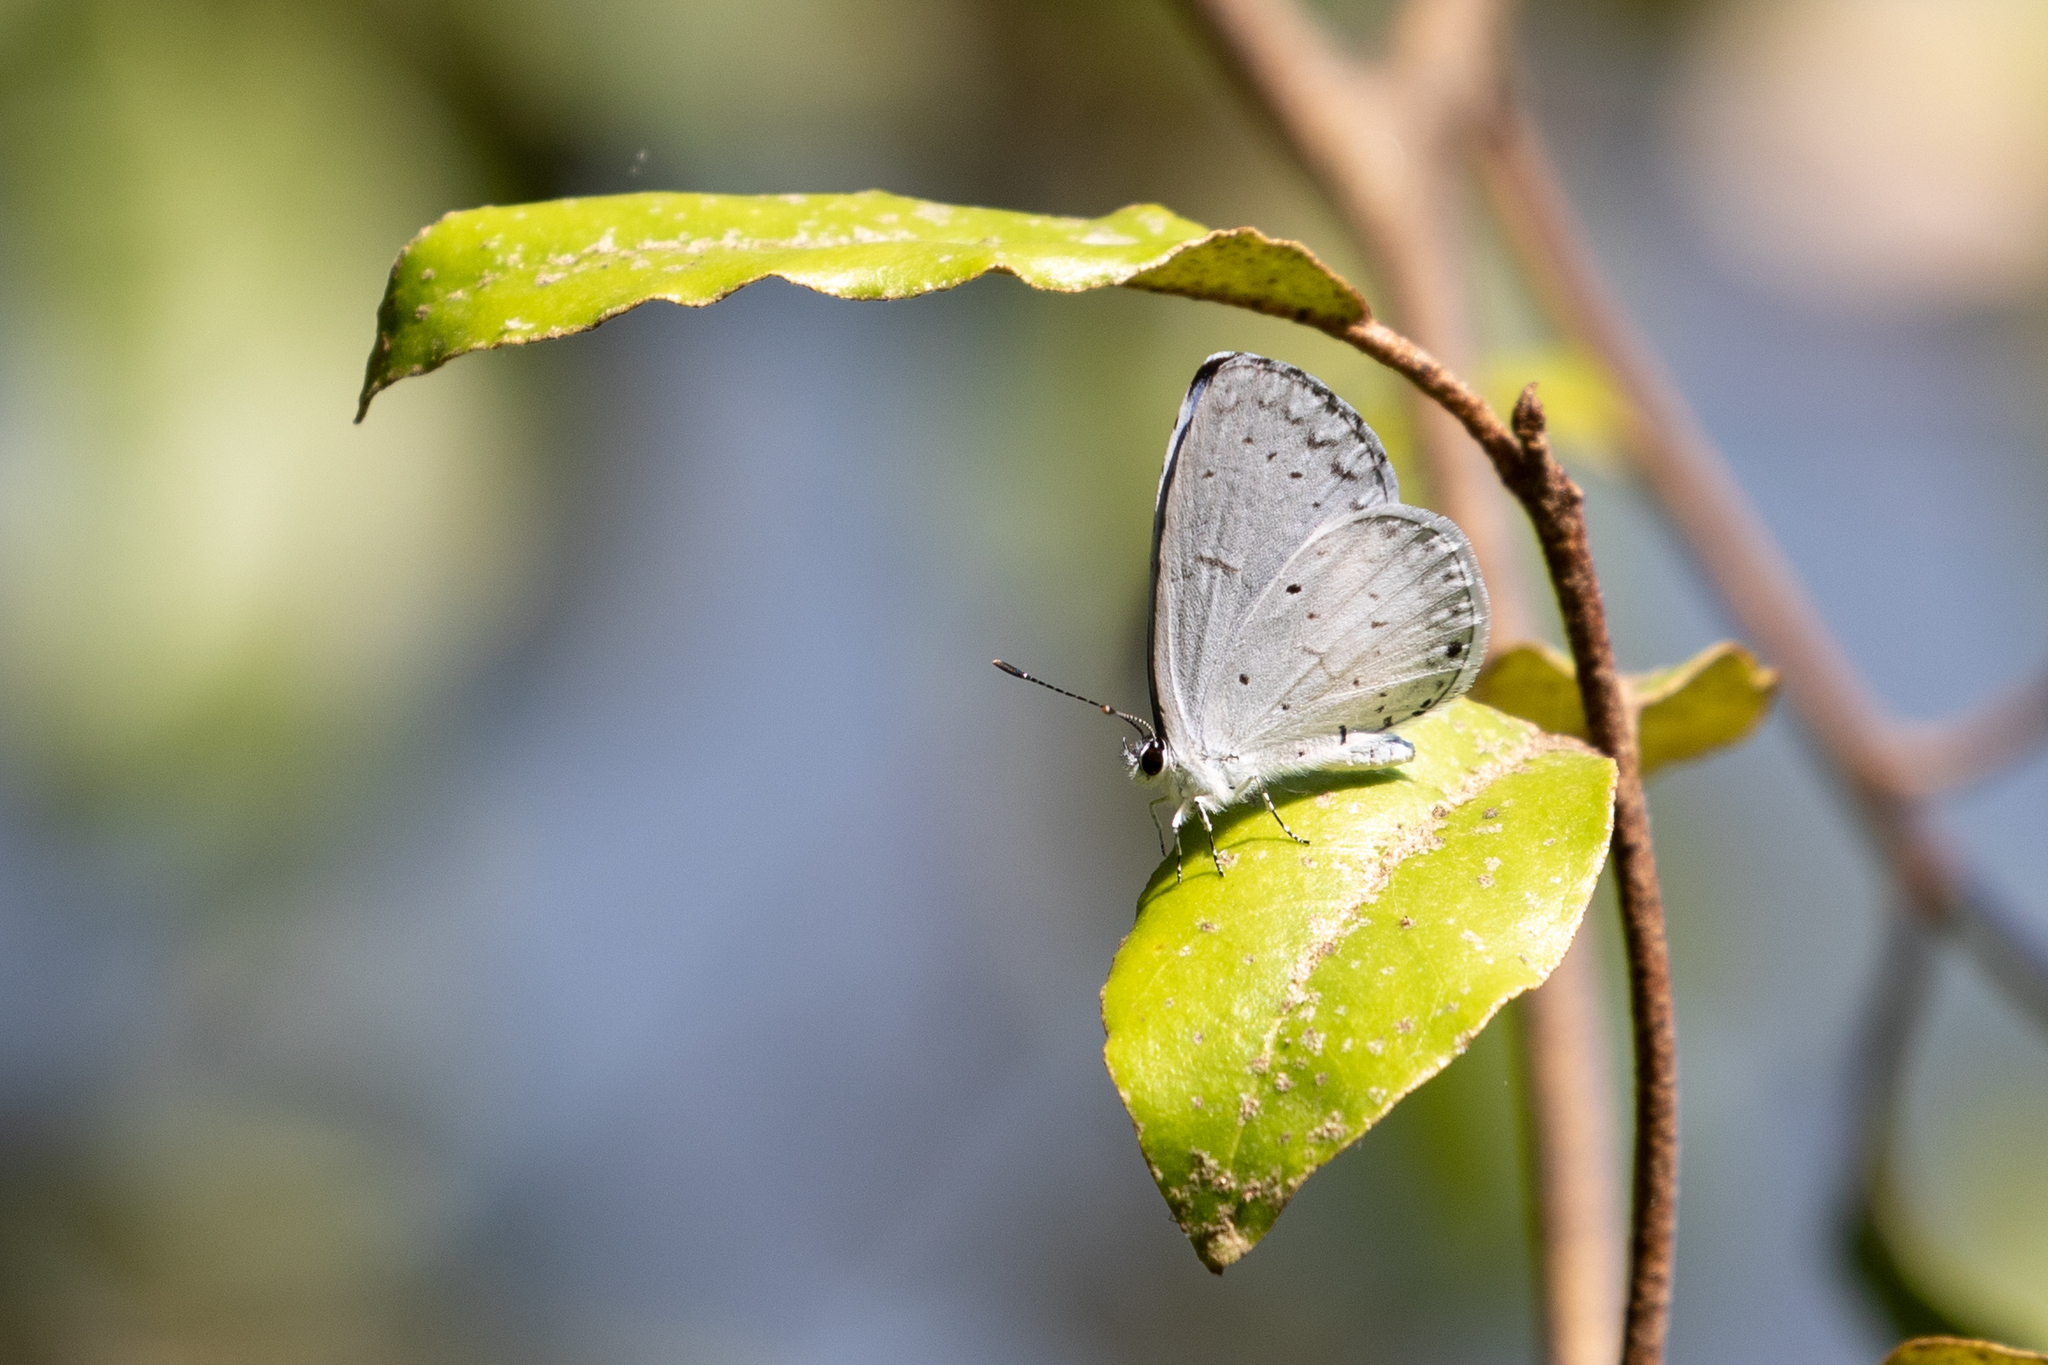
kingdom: Animalia
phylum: Arthropoda
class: Insecta
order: Lepidoptera
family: Lycaenidae
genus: Cyaniris
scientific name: Cyaniris neglecta
